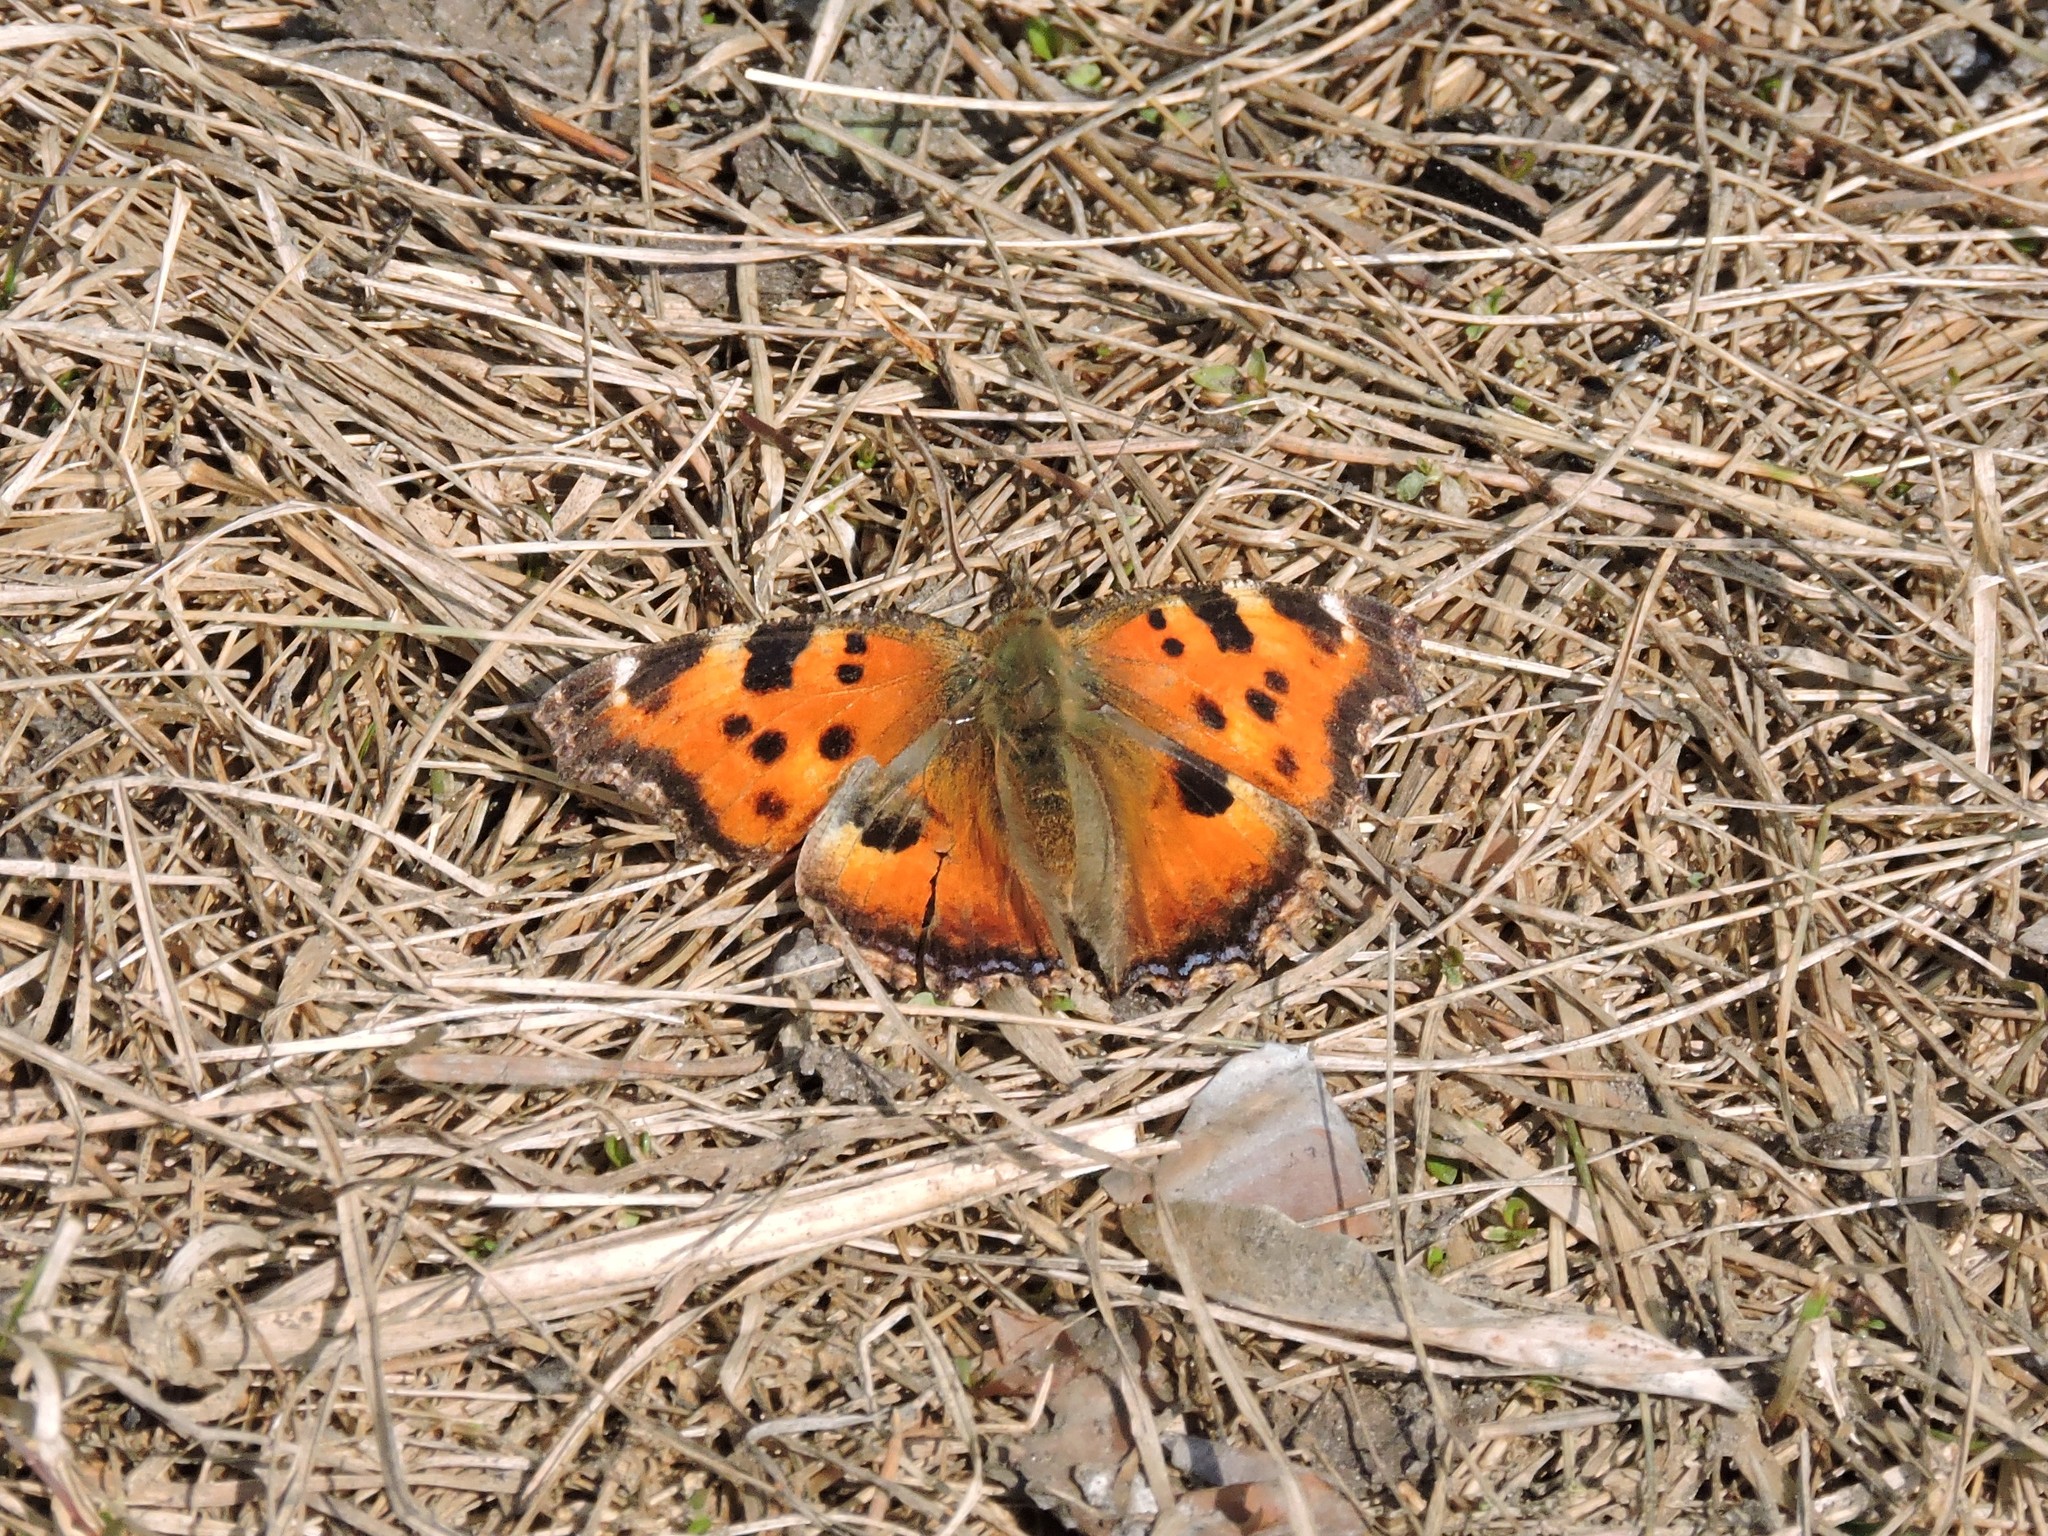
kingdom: Animalia
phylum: Arthropoda
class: Insecta
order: Lepidoptera
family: Nymphalidae
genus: Nymphalis
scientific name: Nymphalis xanthomelas
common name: Scarce tortoiseshell
